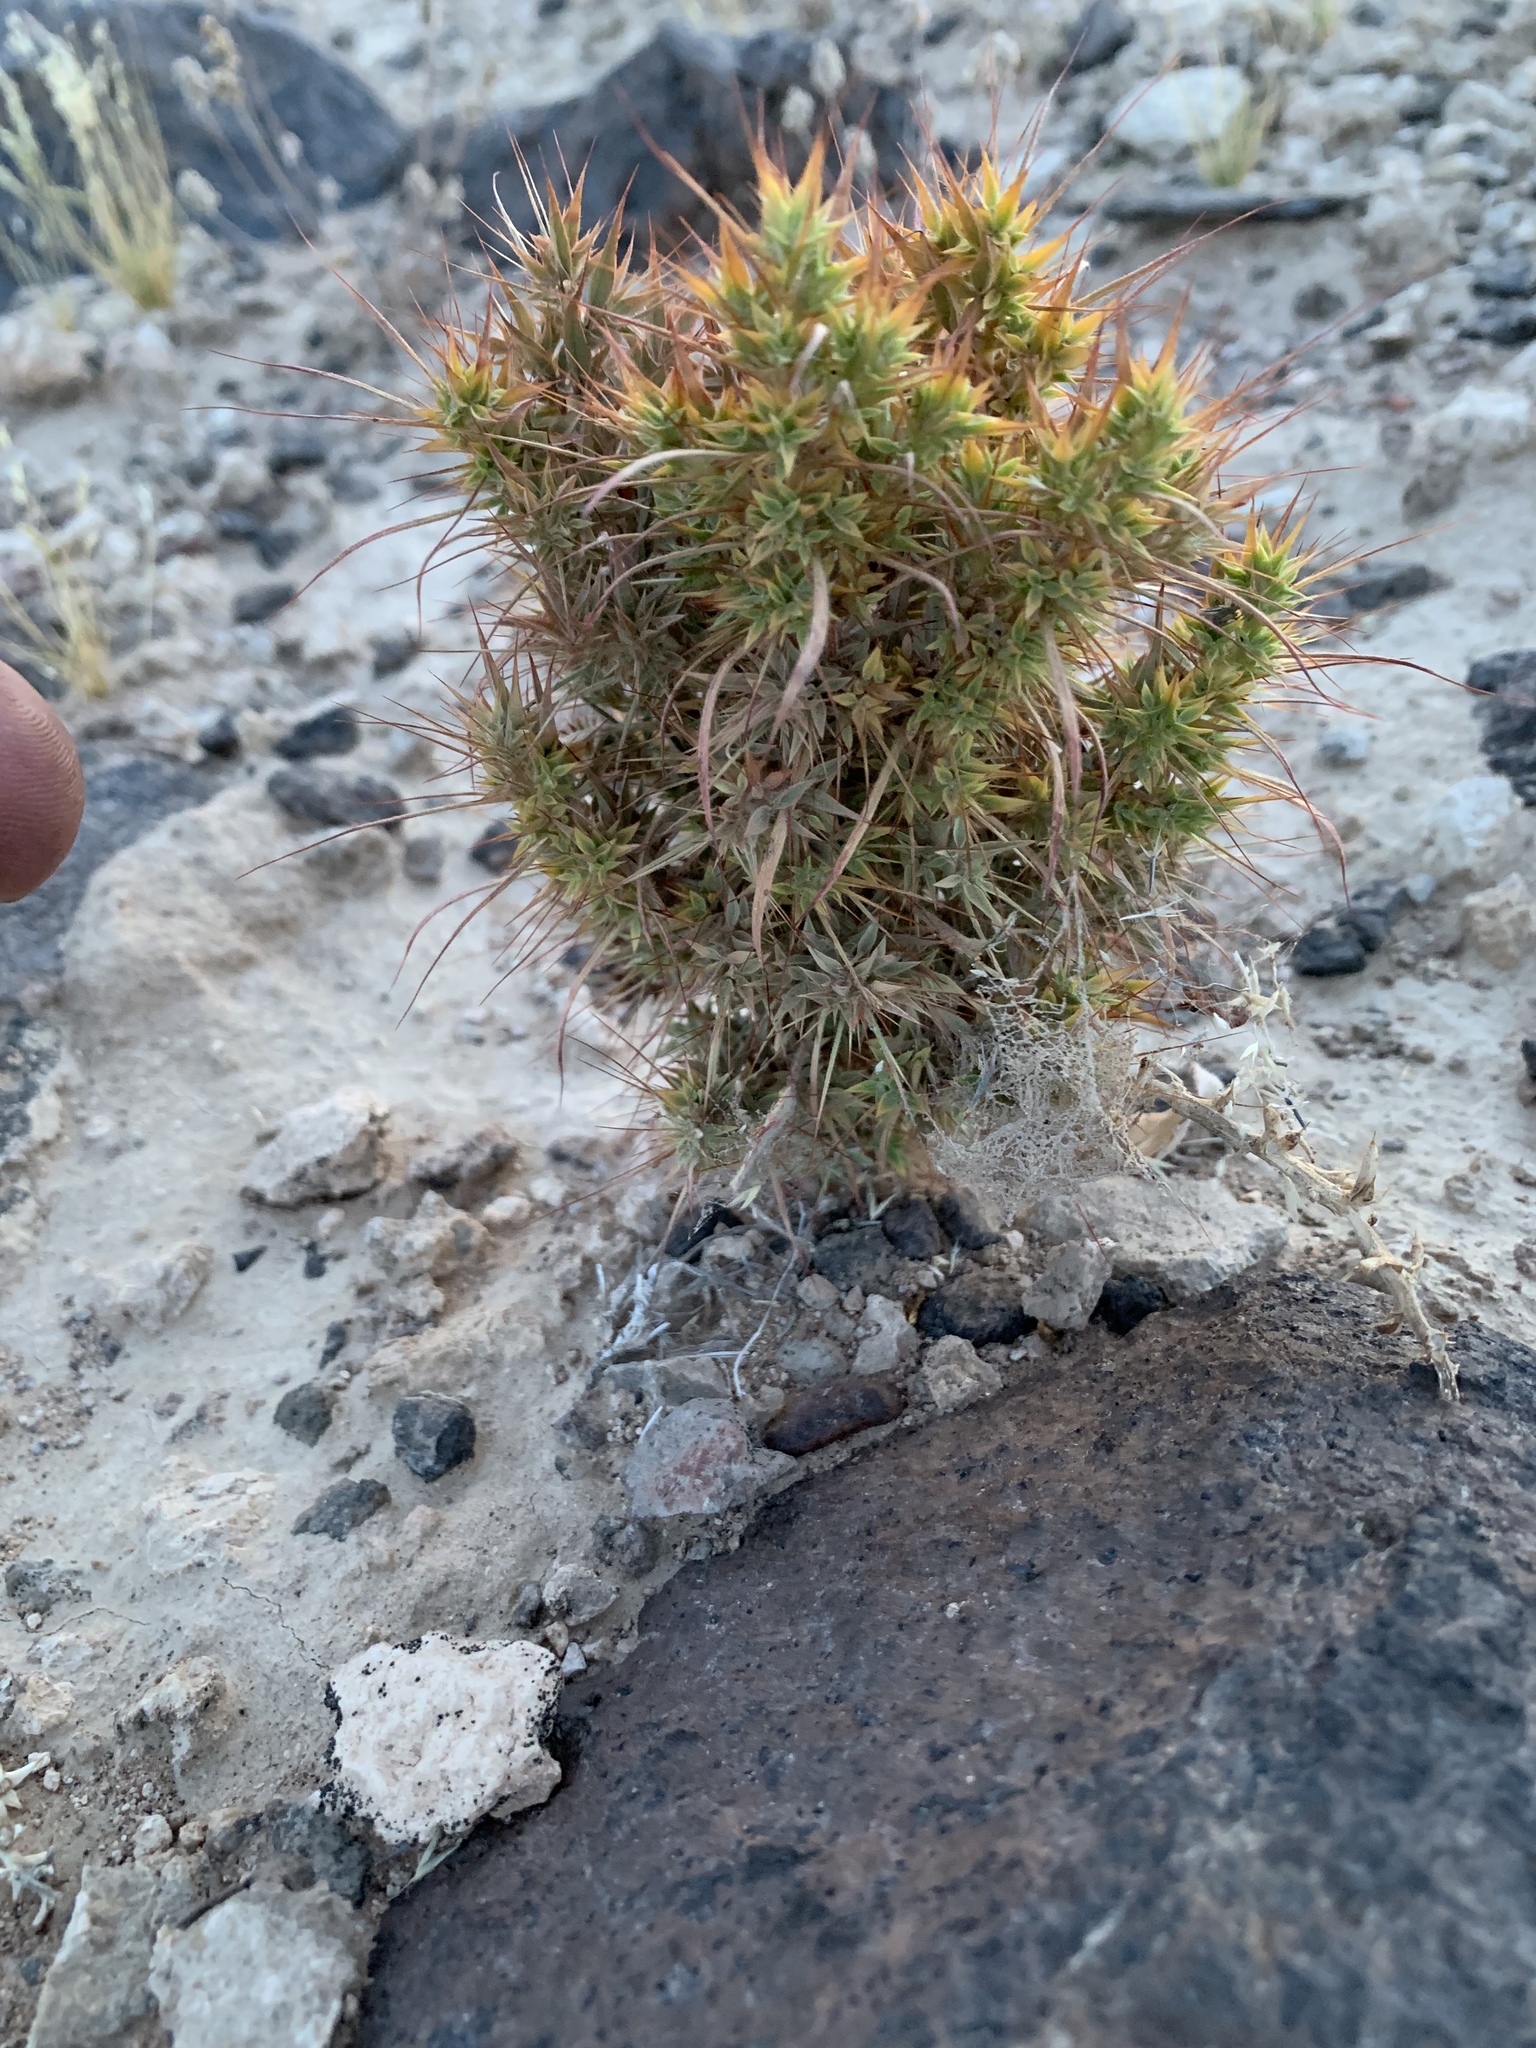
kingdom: Plantae
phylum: Tracheophyta
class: Magnoliopsida
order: Caryophyllales
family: Polygonaceae
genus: Chorizanthe
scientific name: Chorizanthe rigida
